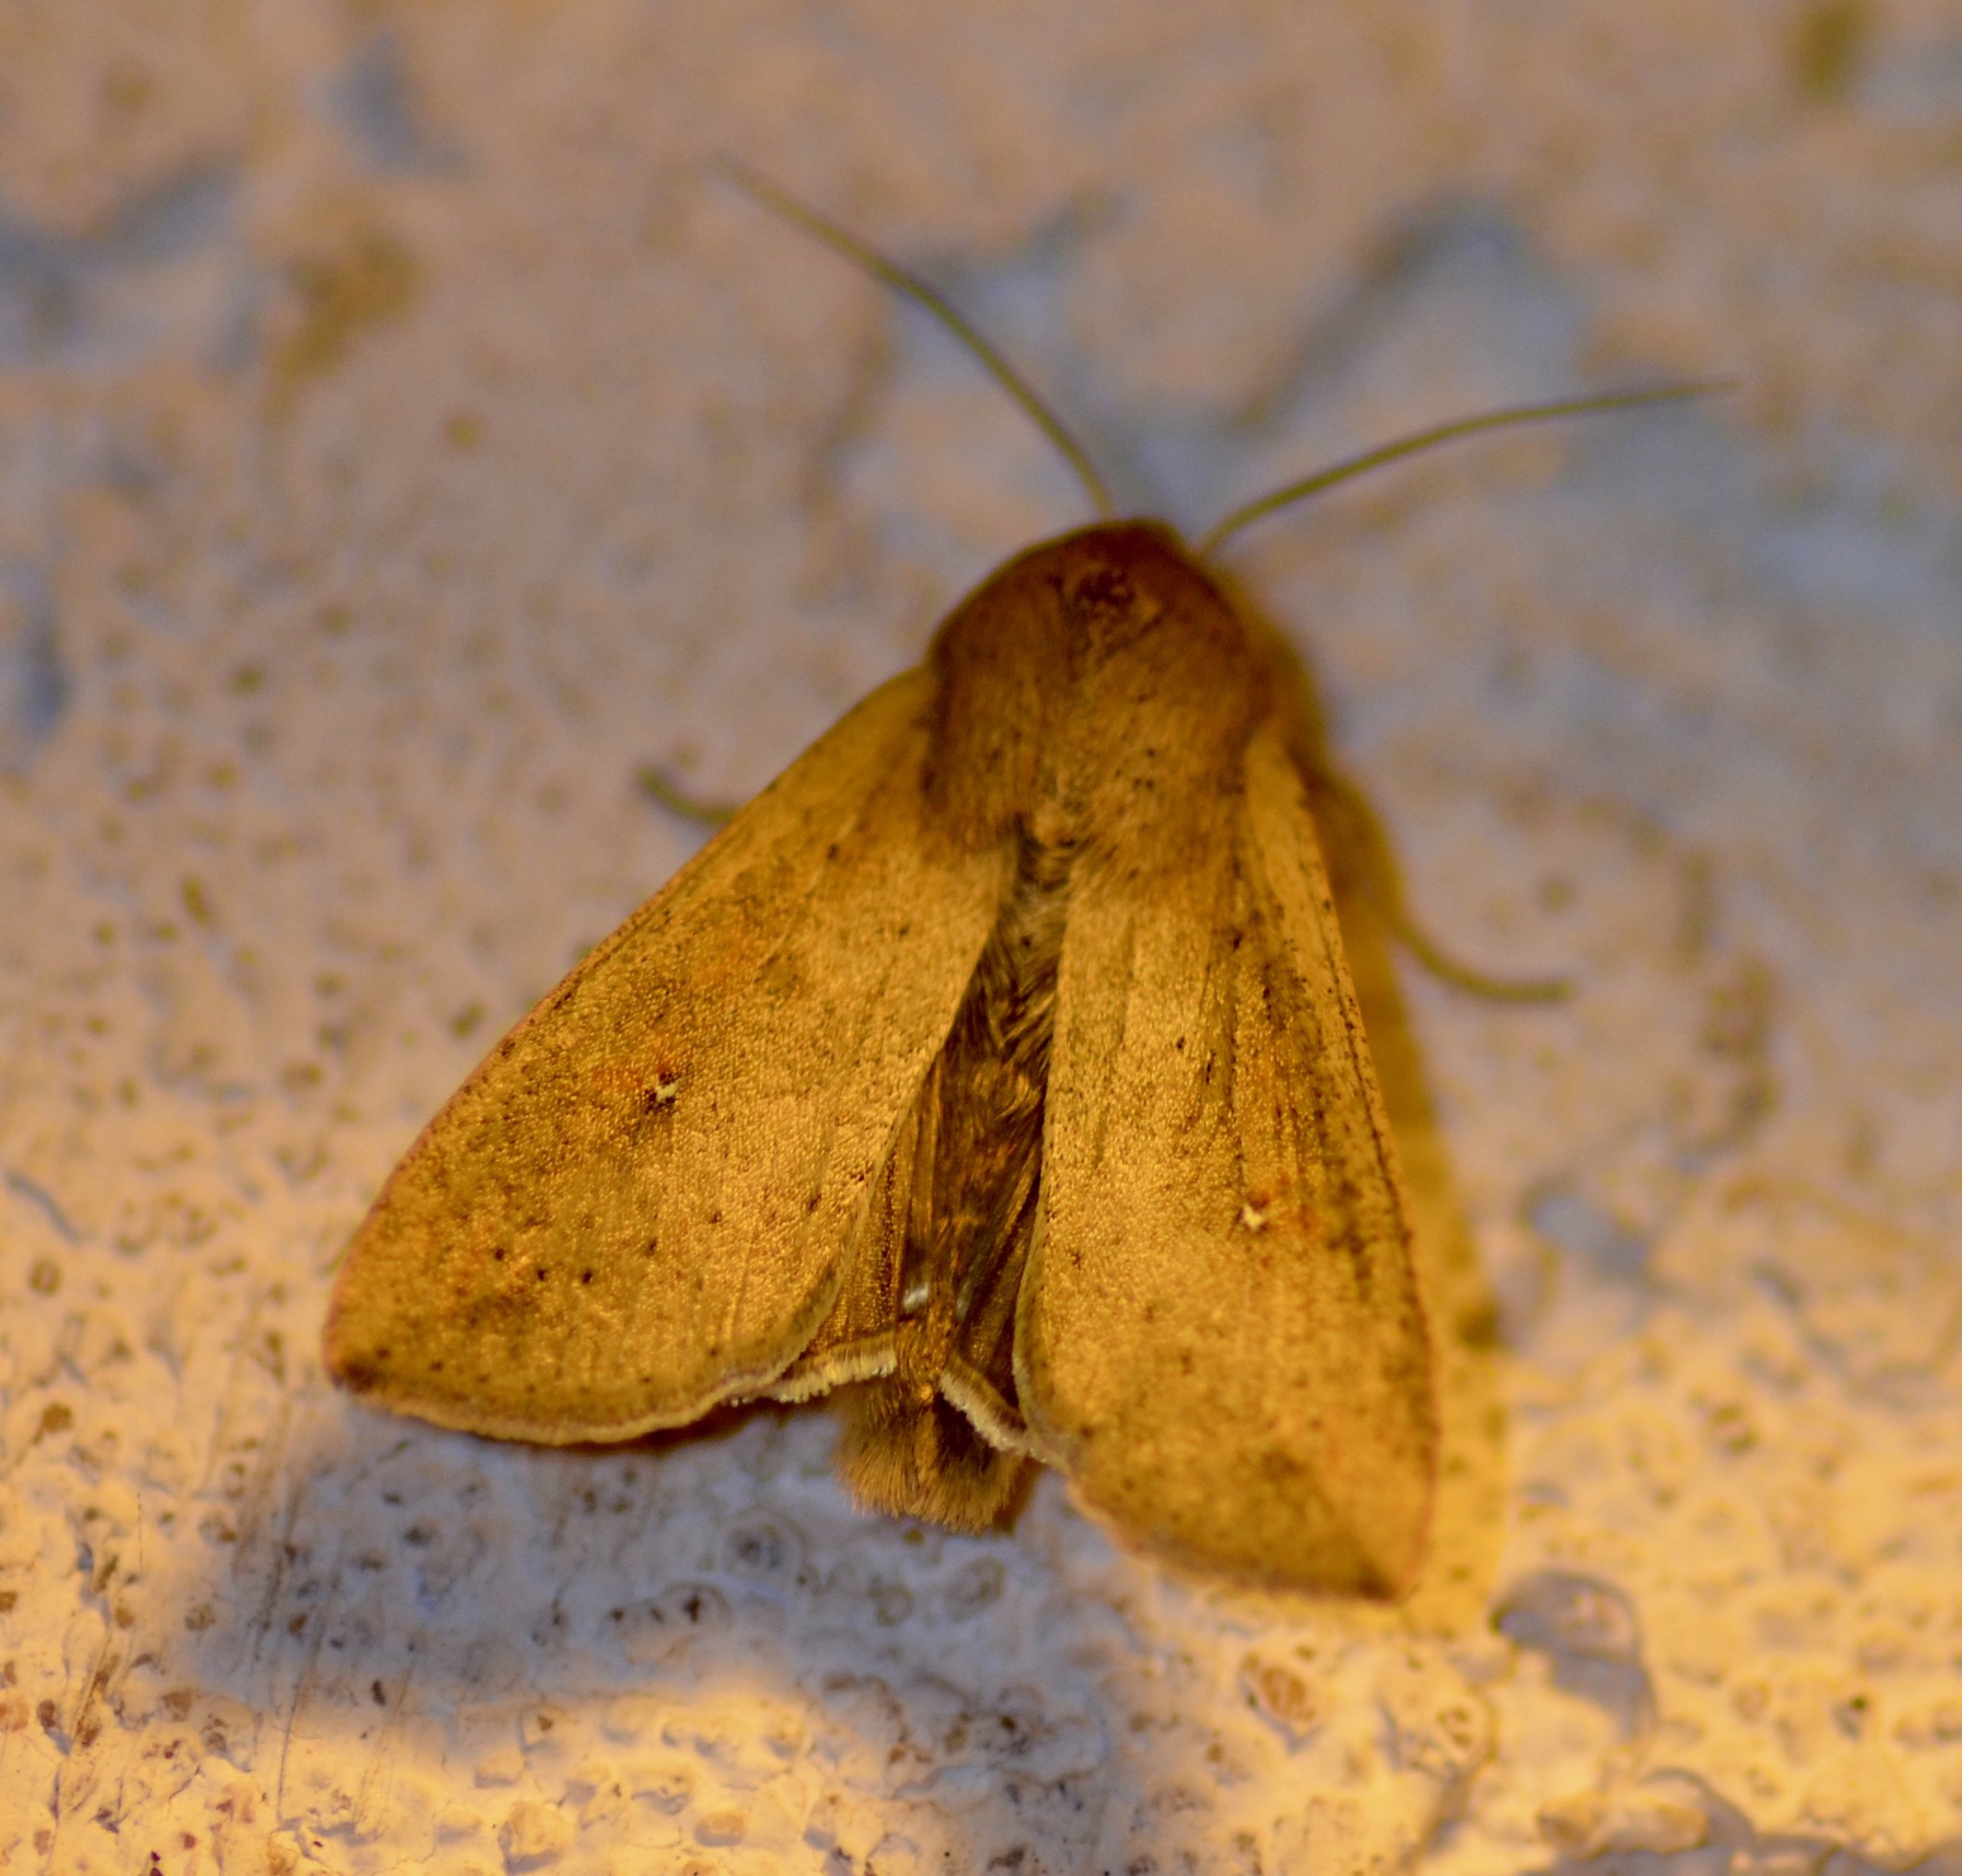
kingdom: Animalia
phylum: Arthropoda
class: Insecta
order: Lepidoptera
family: Noctuidae
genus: Mythimna
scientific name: Mythimna unipuncta
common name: White-speck
